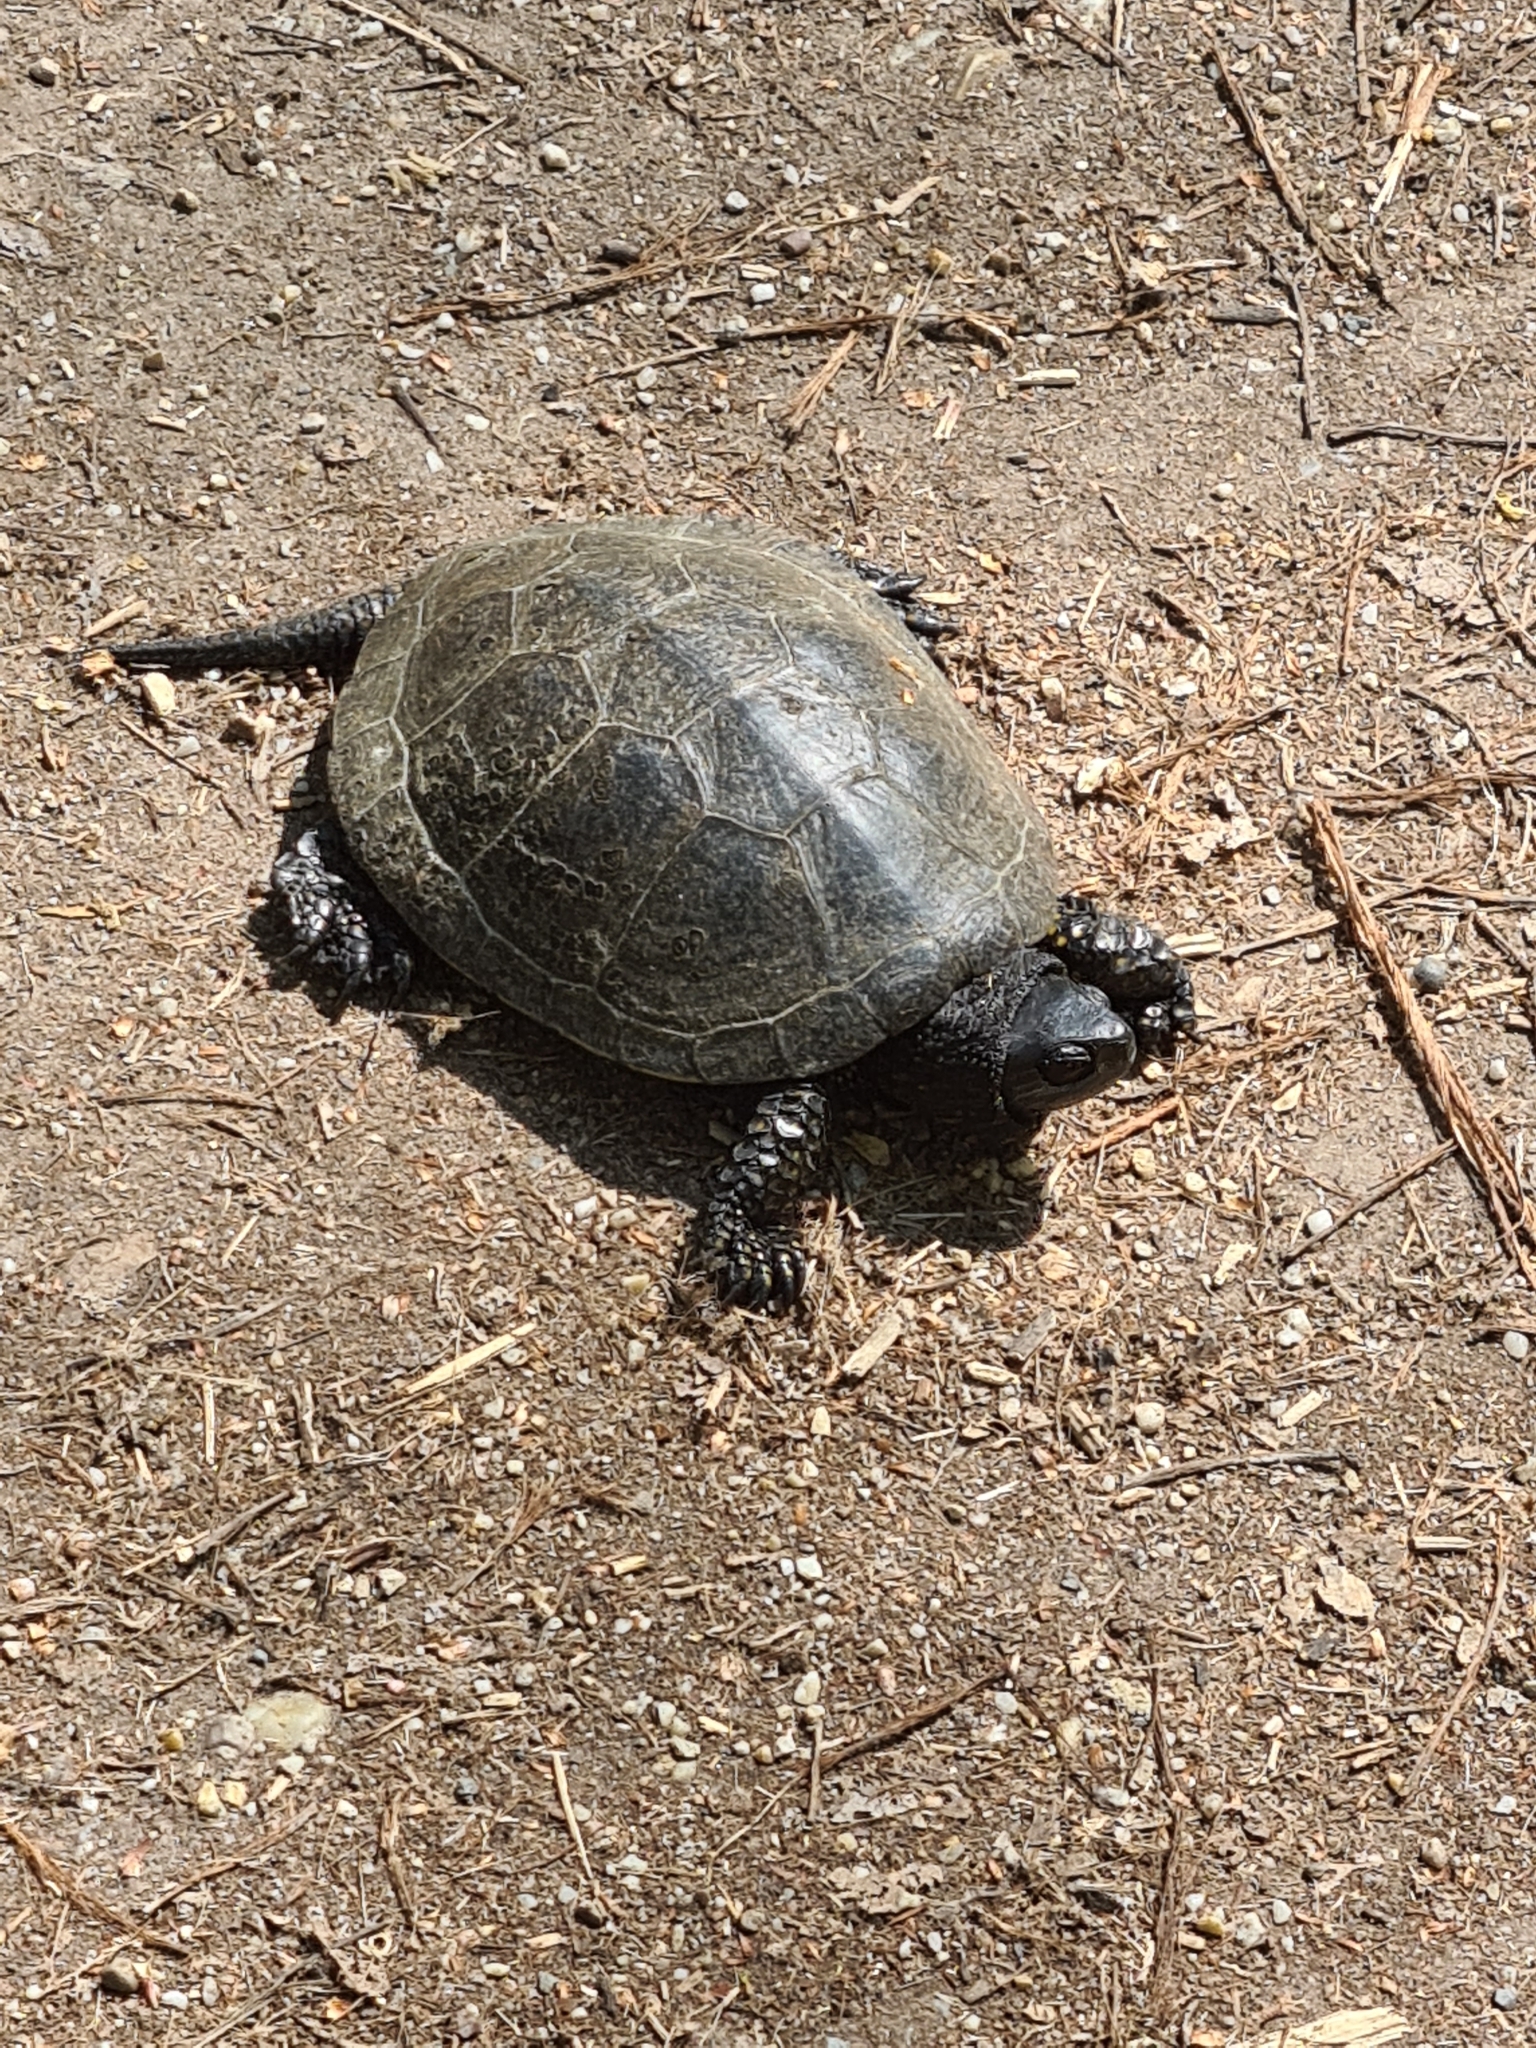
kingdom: Animalia
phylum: Chordata
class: Testudines
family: Emydidae
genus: Emys
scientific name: Emys orbicularis
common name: European pond turtle
